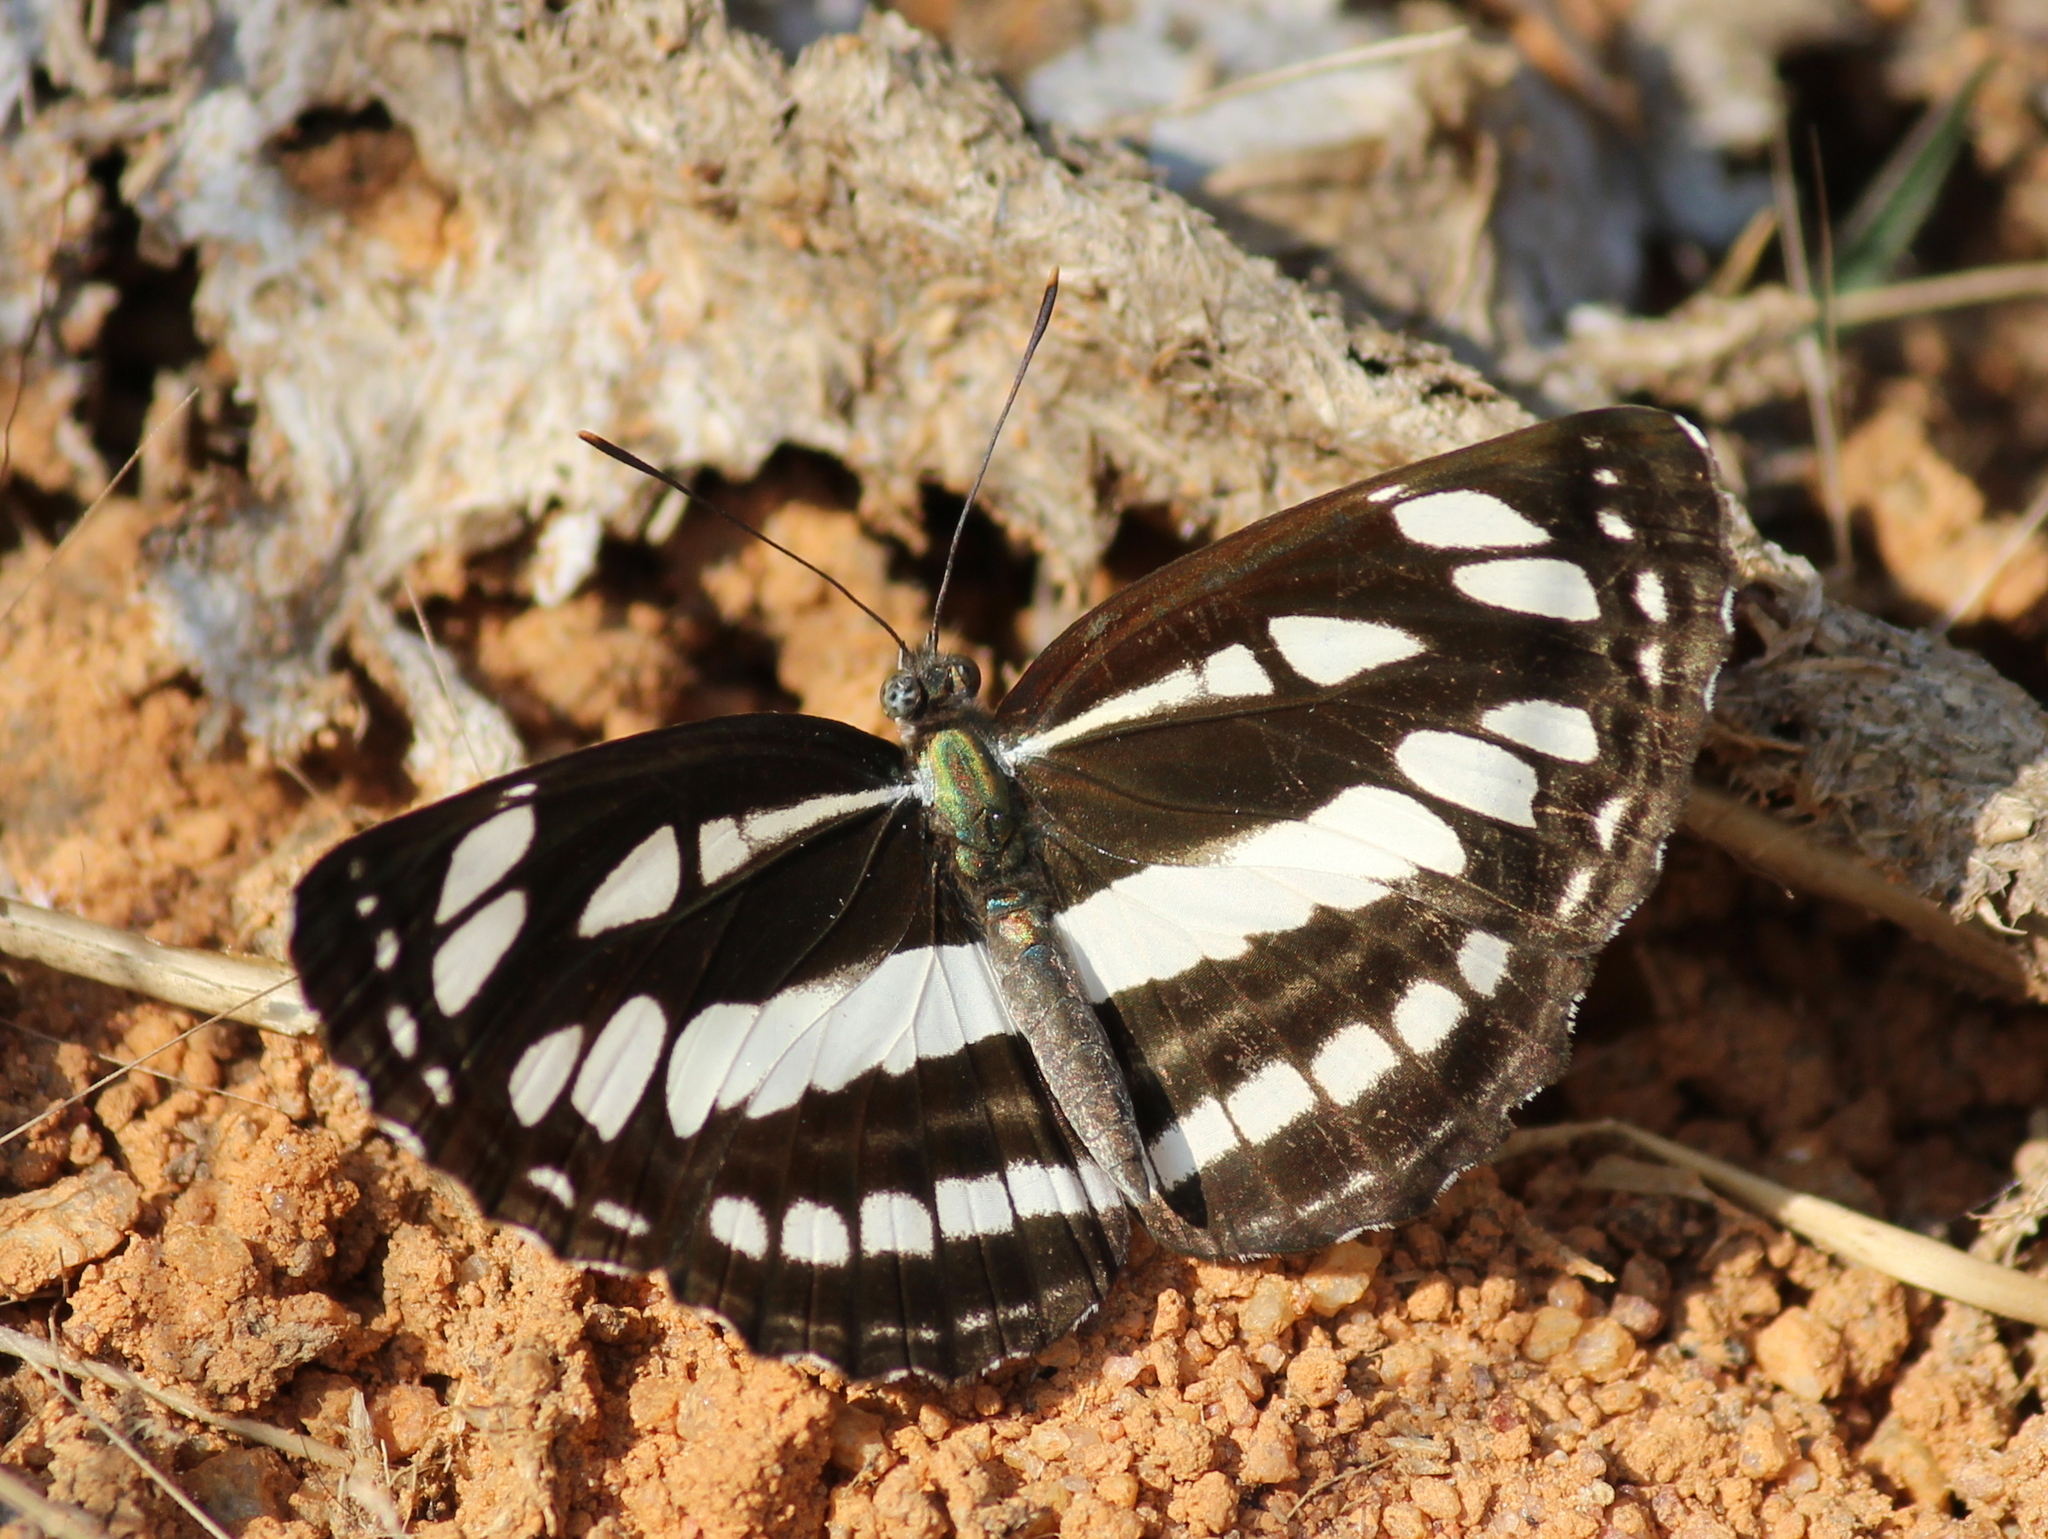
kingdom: Animalia
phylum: Arthropoda
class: Insecta
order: Lepidoptera
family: Nymphalidae
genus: Neptis
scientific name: Neptis hylas
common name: Common sailer
